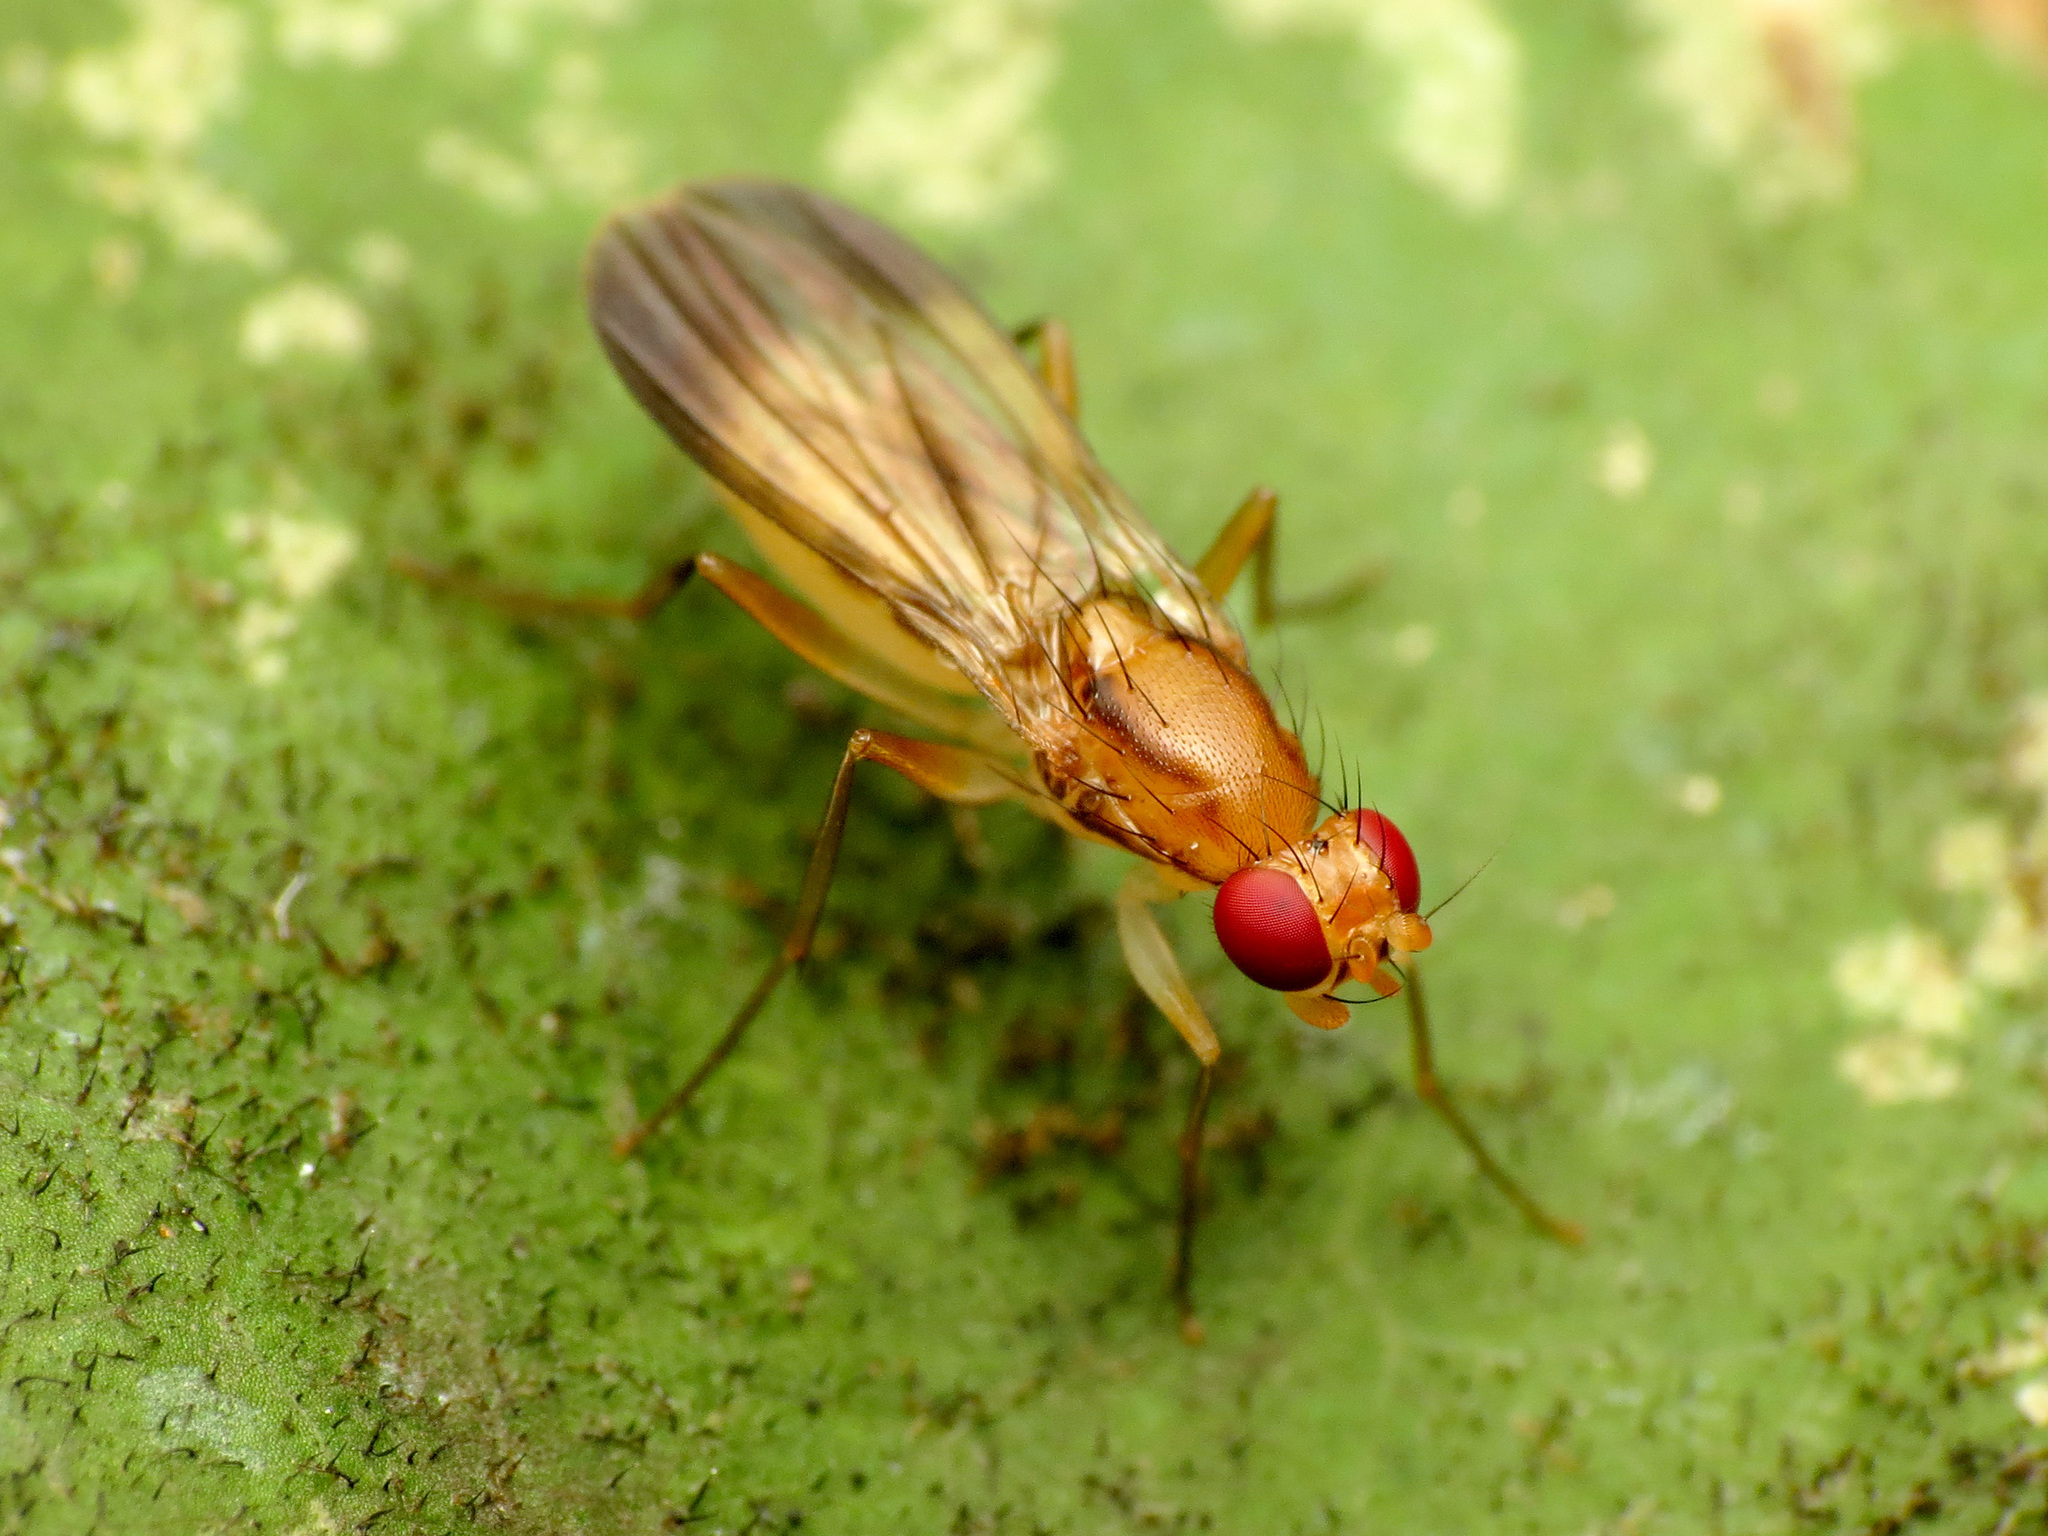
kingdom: Animalia
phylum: Arthropoda
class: Insecta
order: Diptera
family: Clusiidae
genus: Clusia
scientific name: Clusia lateralis
